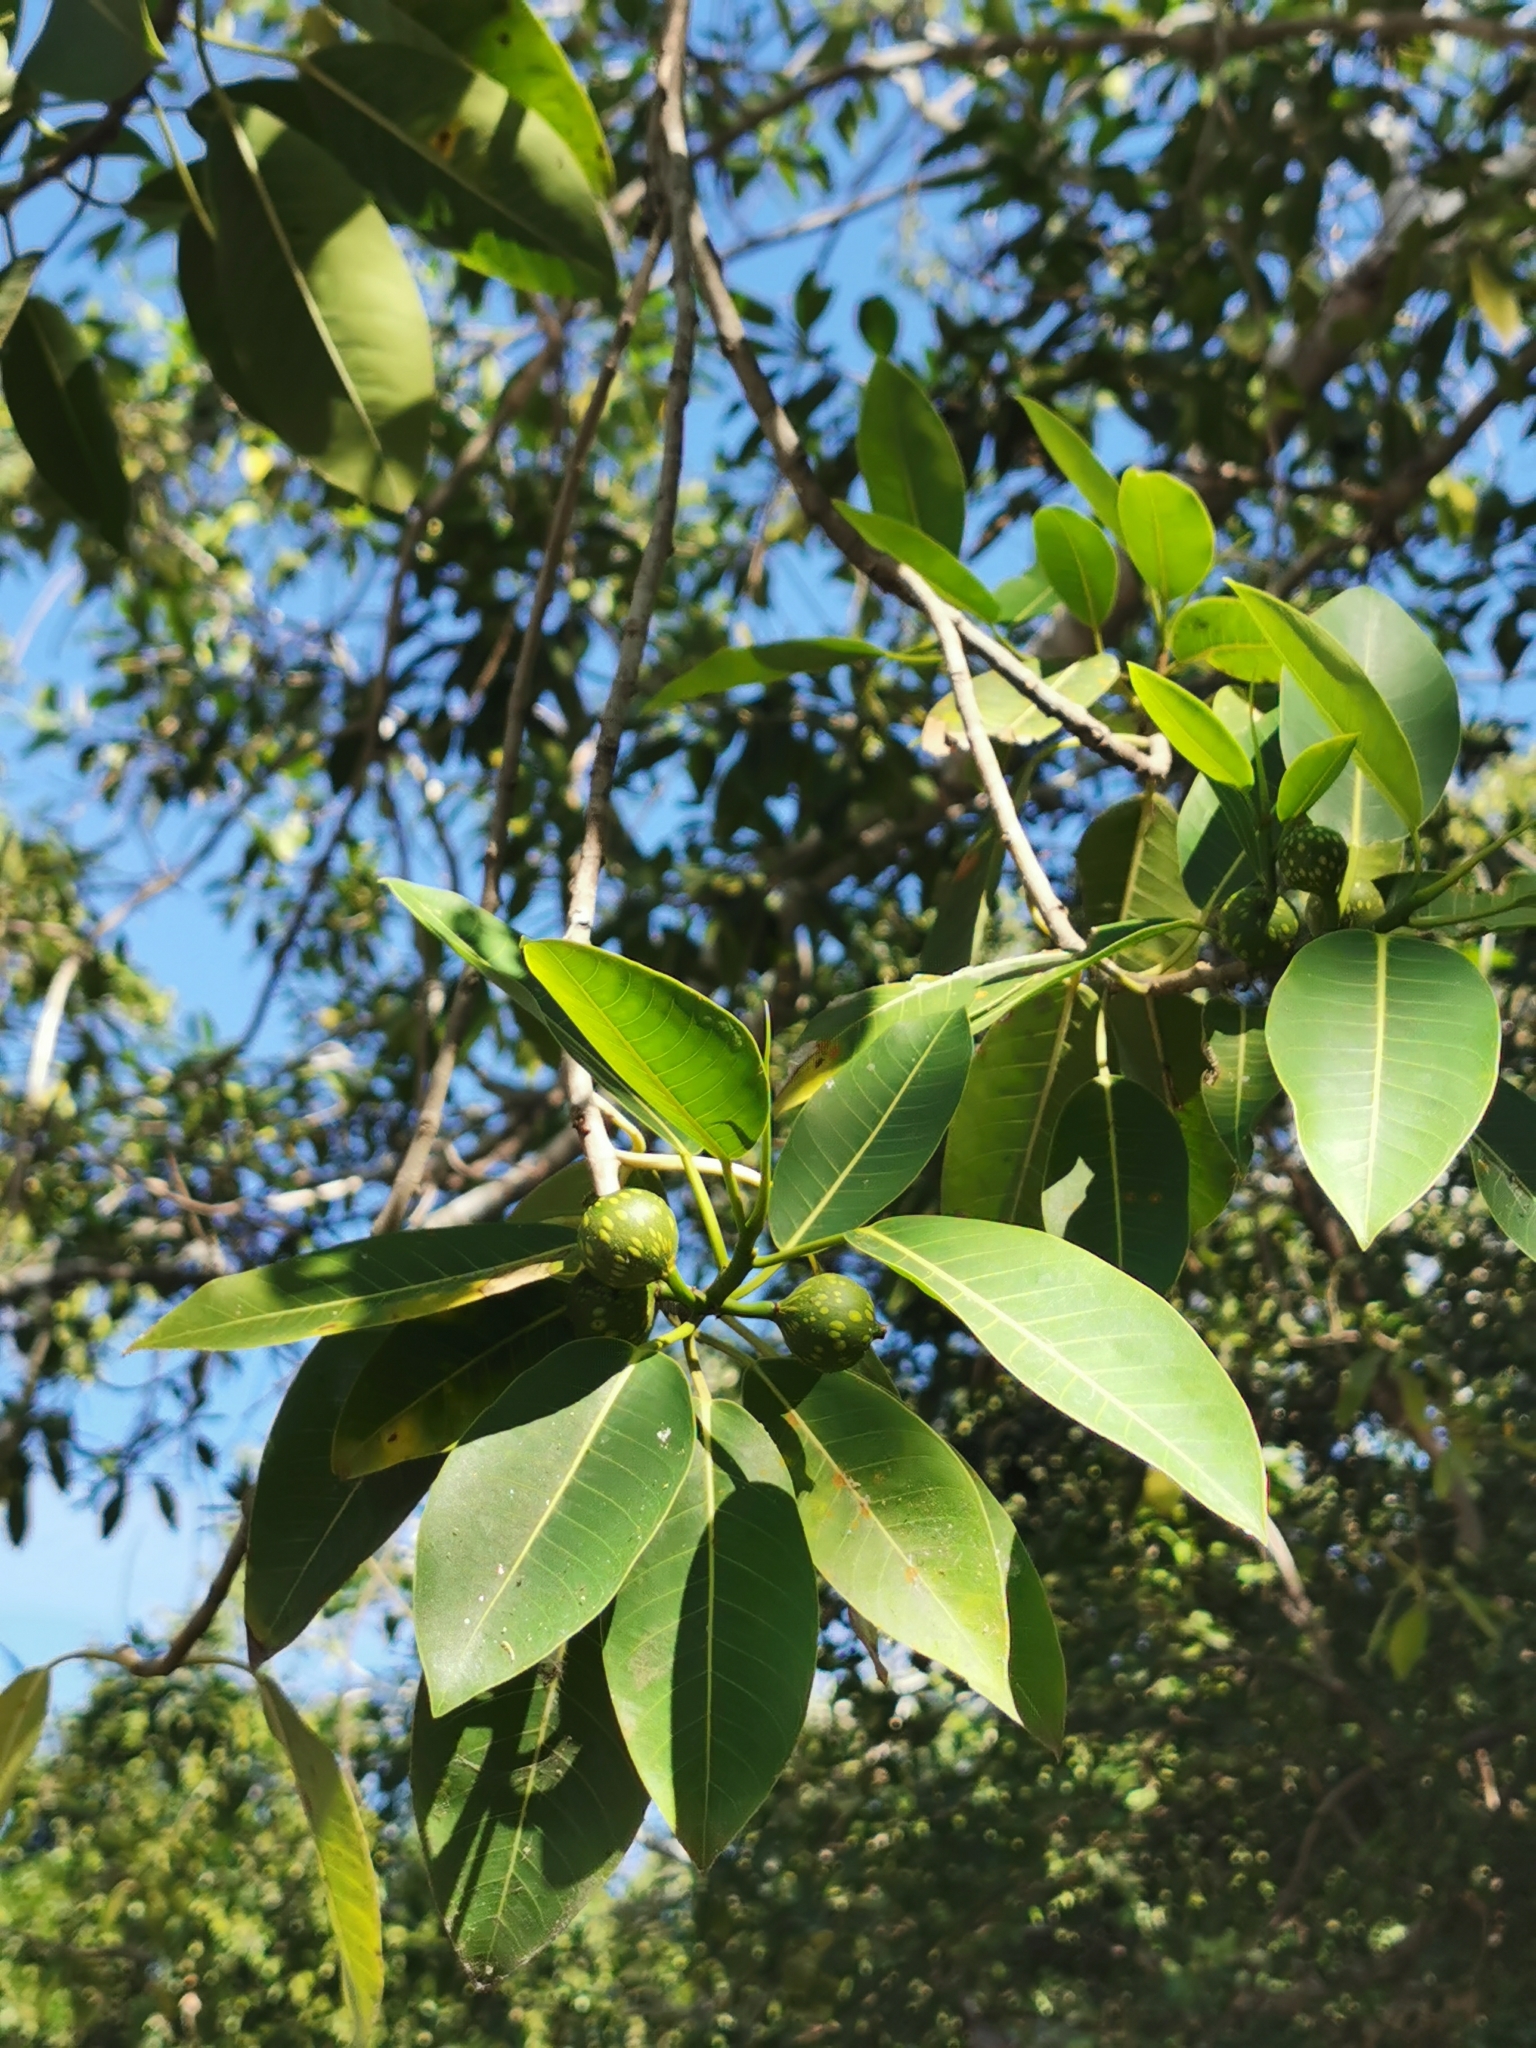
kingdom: Plantae
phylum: Tracheophyta
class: Magnoliopsida
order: Rosales
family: Moraceae
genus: Ficus
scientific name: Ficus insipida
